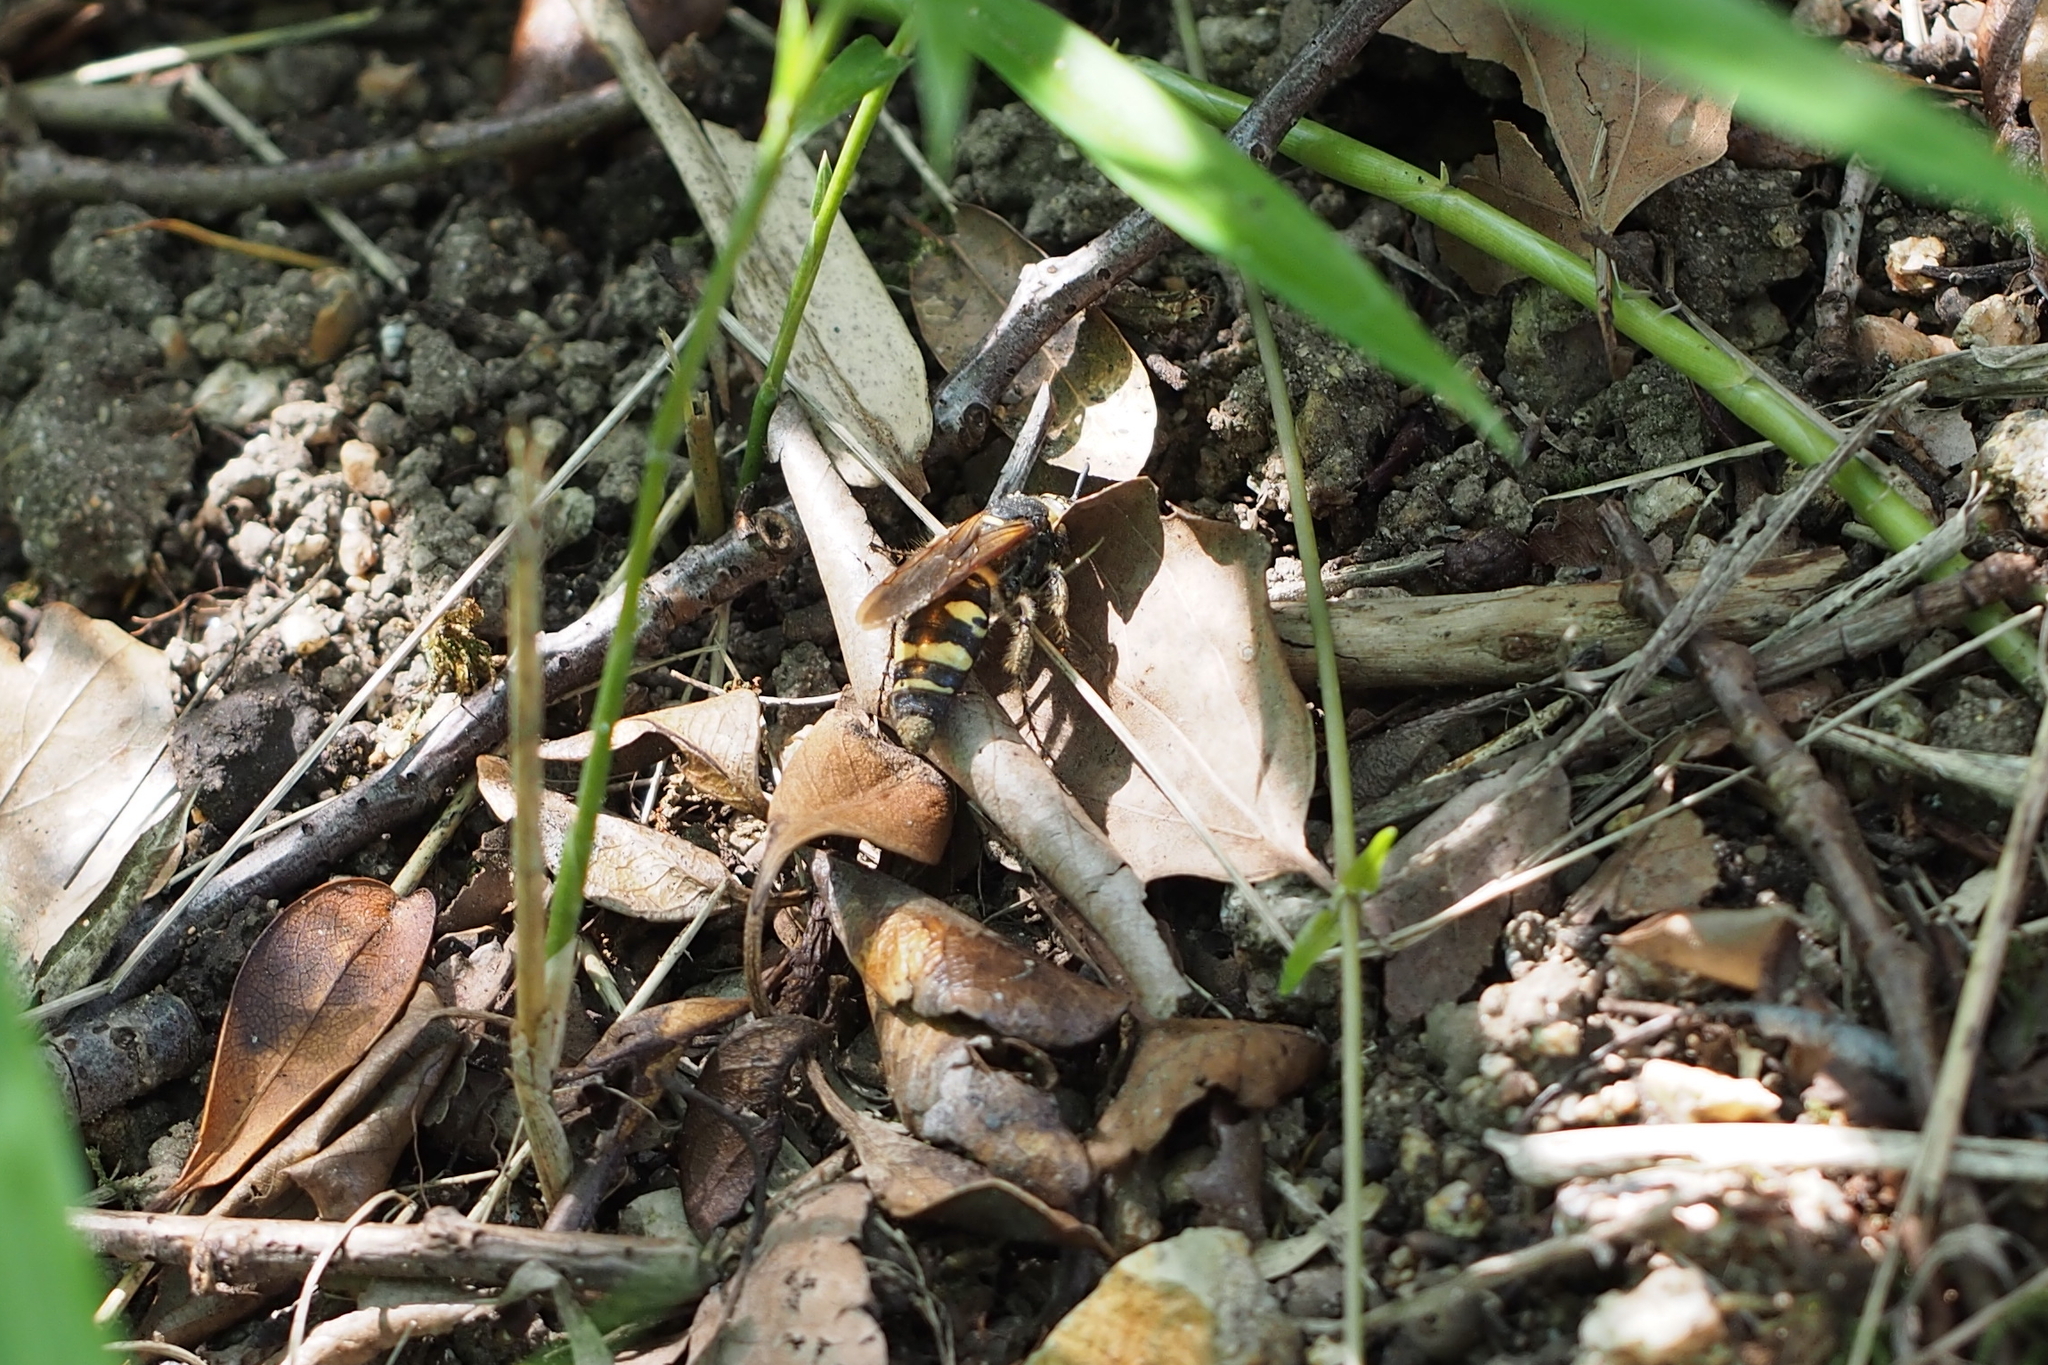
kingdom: Animalia
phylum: Arthropoda
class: Insecta
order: Hymenoptera
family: Scoliidae
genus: Scolia
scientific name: Scolia
